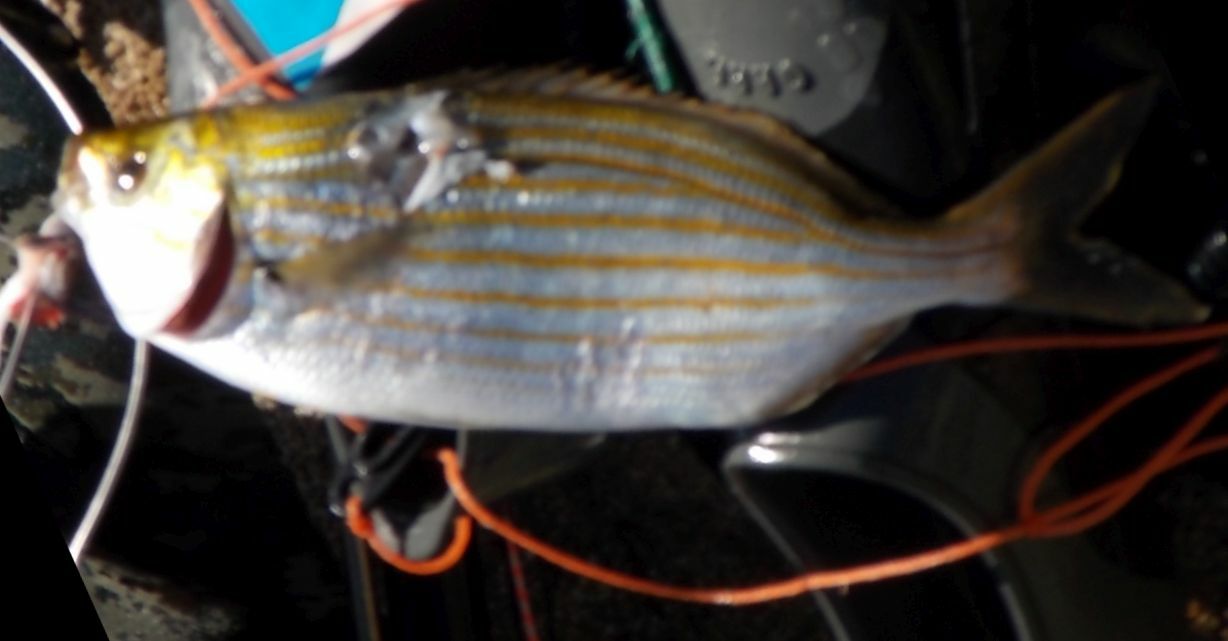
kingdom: Animalia
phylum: Chordata
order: Perciformes
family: Sparidae
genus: Sarpa
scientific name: Sarpa salpa
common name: Salema
